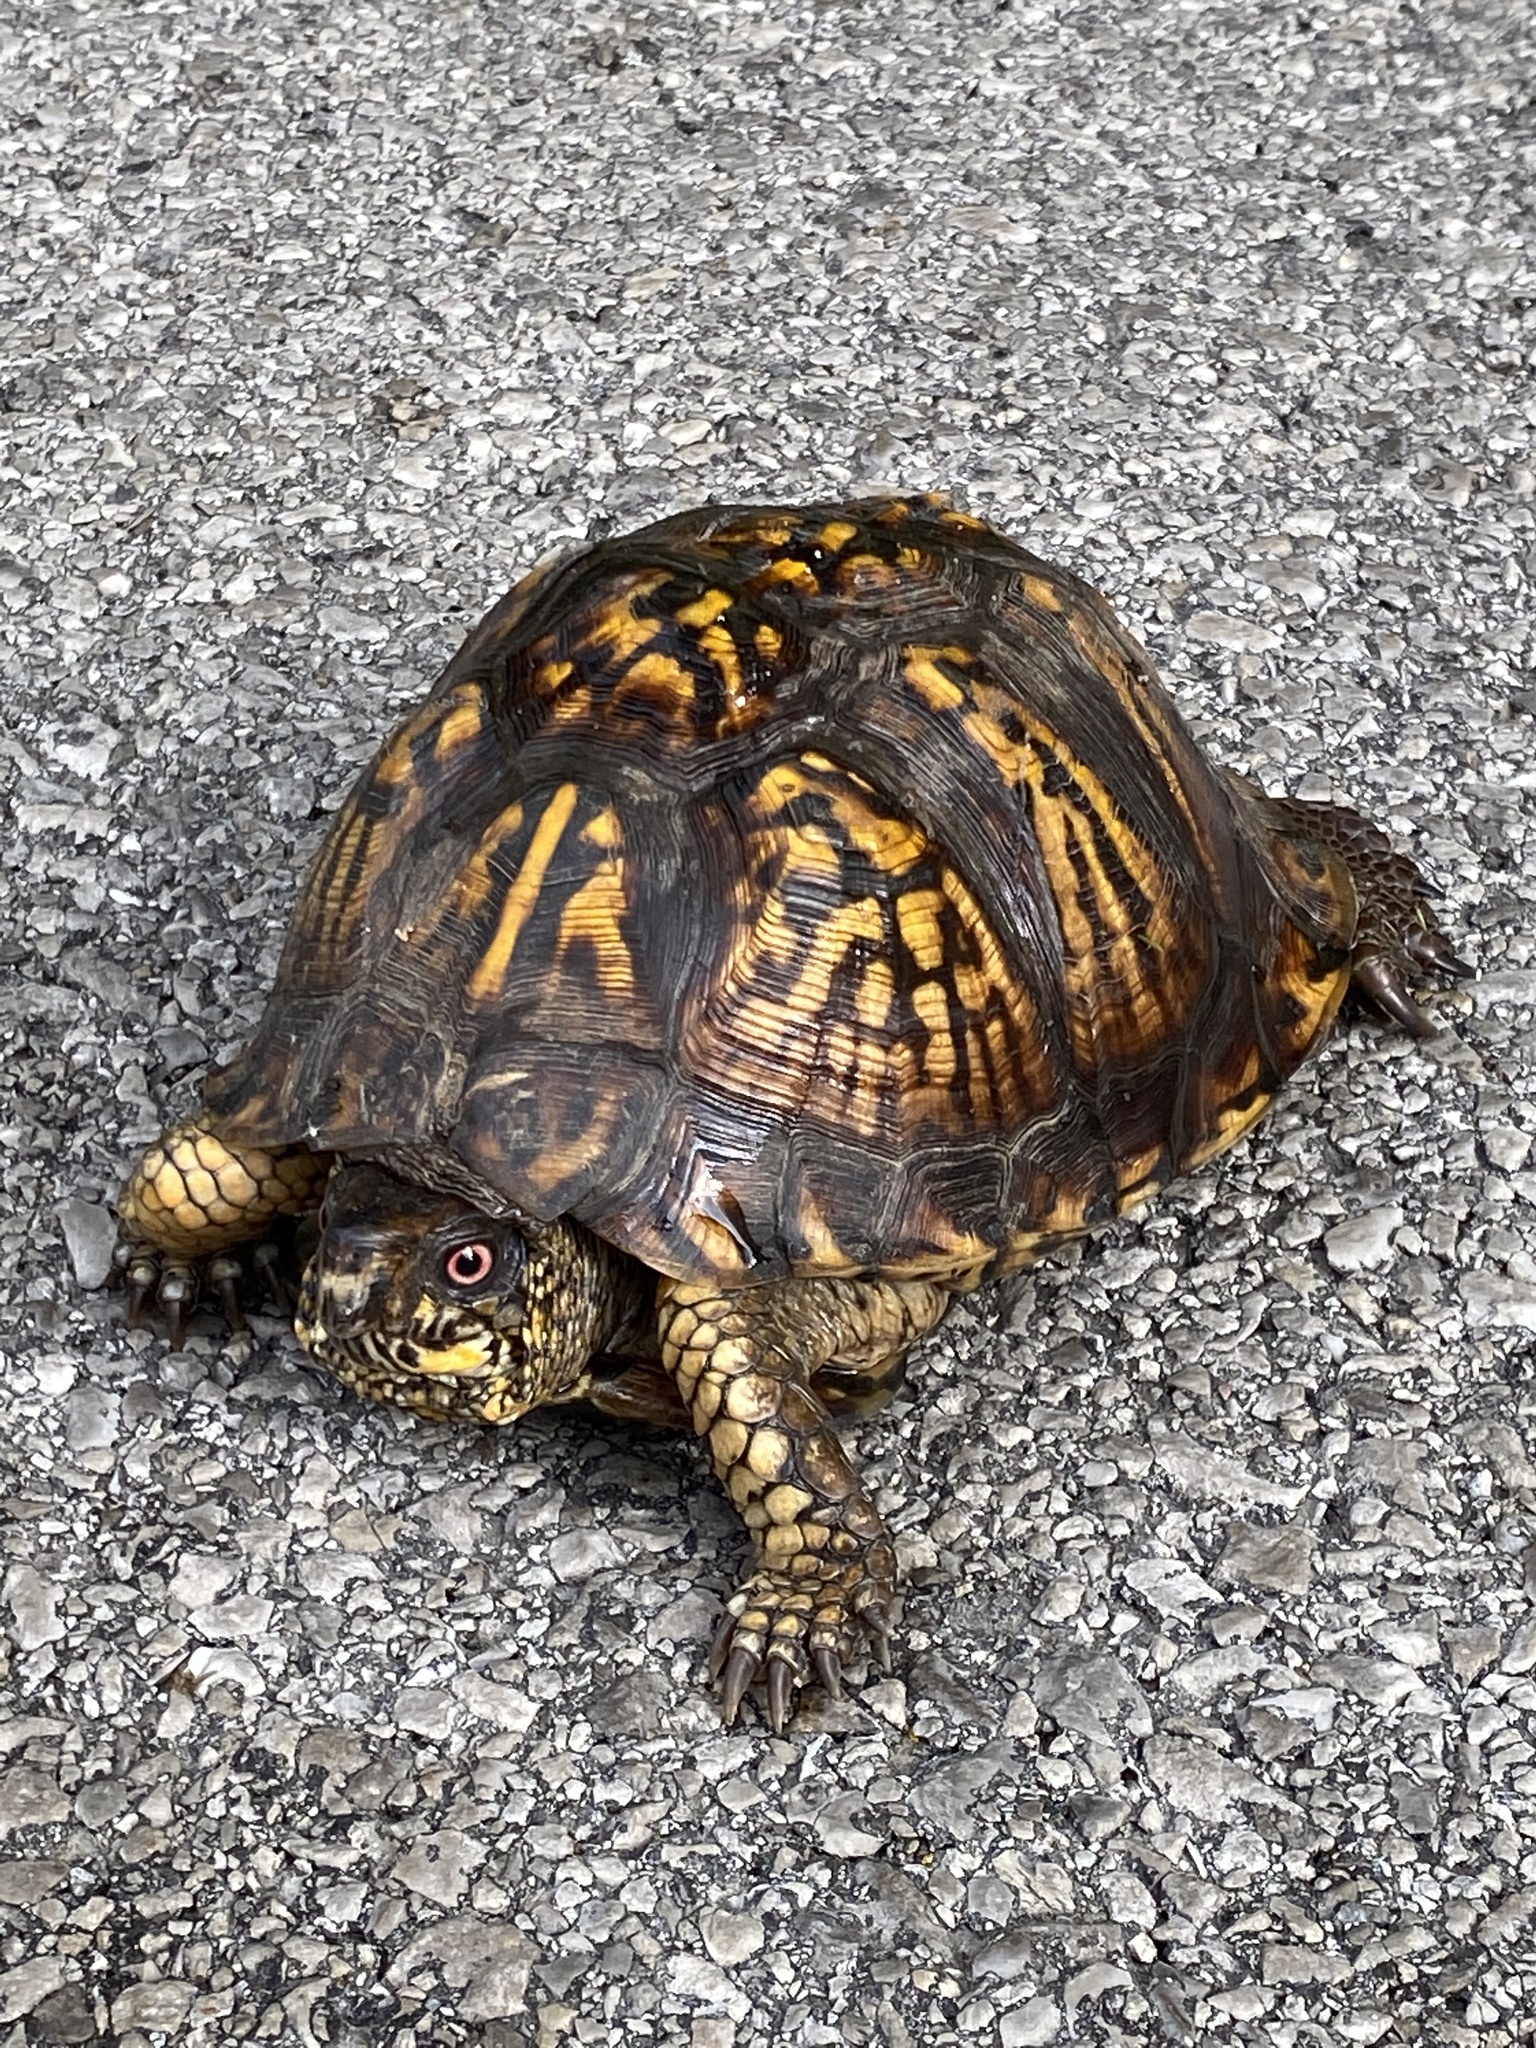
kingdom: Animalia
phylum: Chordata
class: Testudines
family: Emydidae
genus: Terrapene
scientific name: Terrapene carolina
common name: Common box turtle
